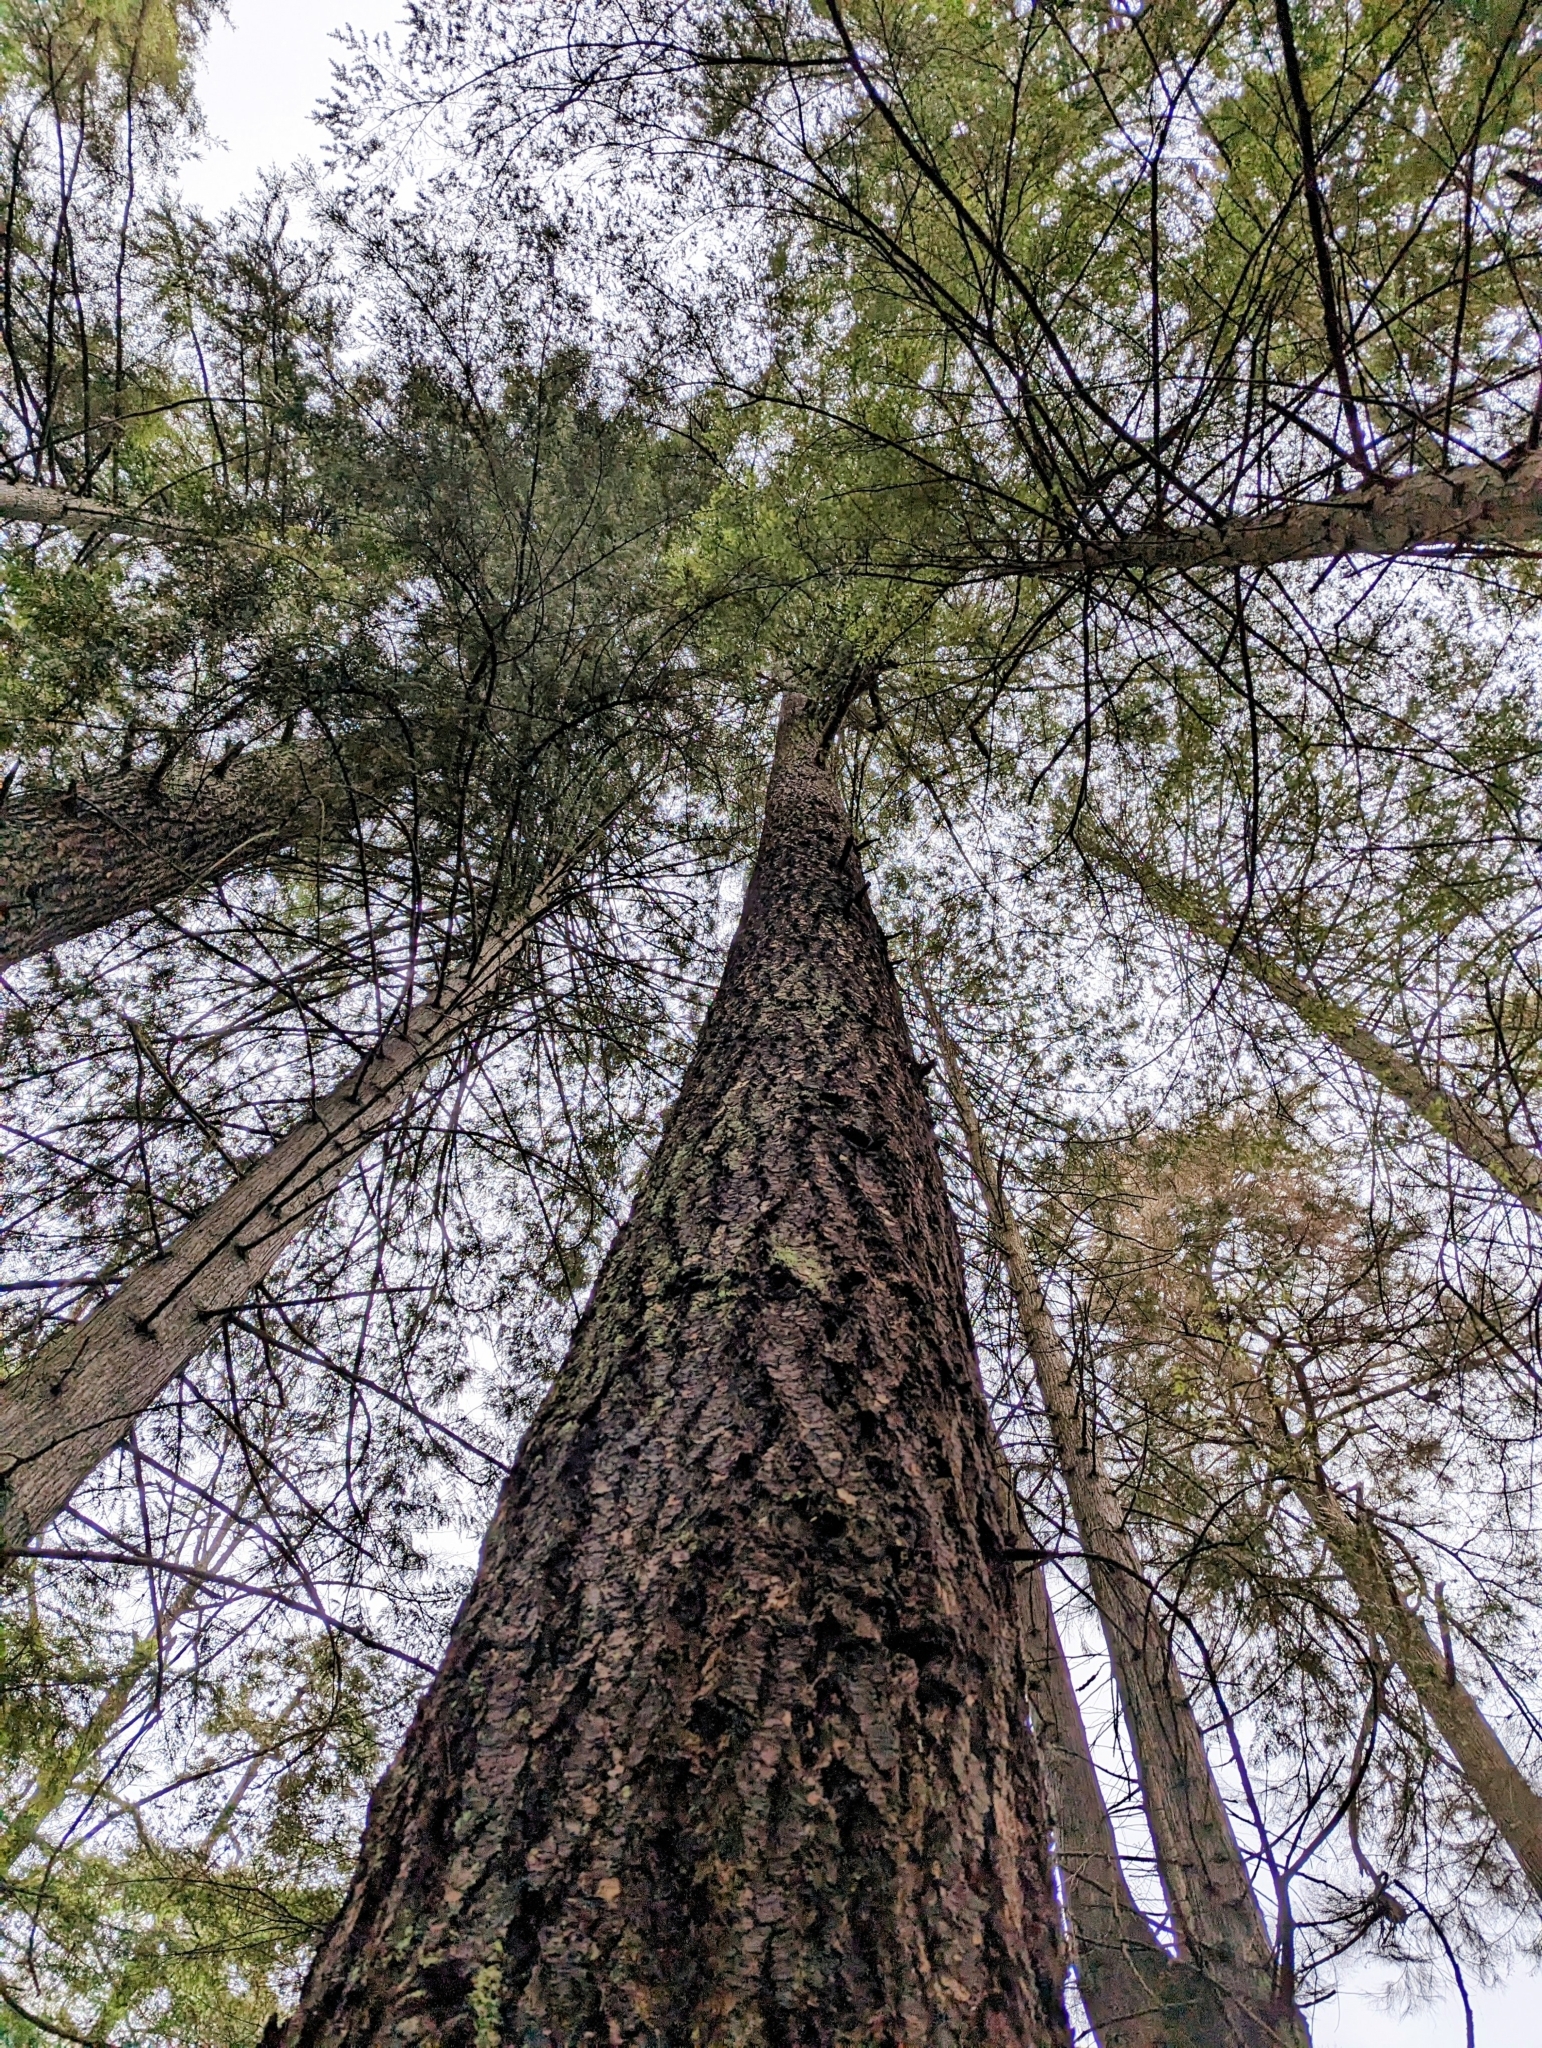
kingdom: Plantae
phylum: Tracheophyta
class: Pinopsida
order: Pinales
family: Pinaceae
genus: Pseudotsuga
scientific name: Pseudotsuga menziesii
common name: Douglas fir
